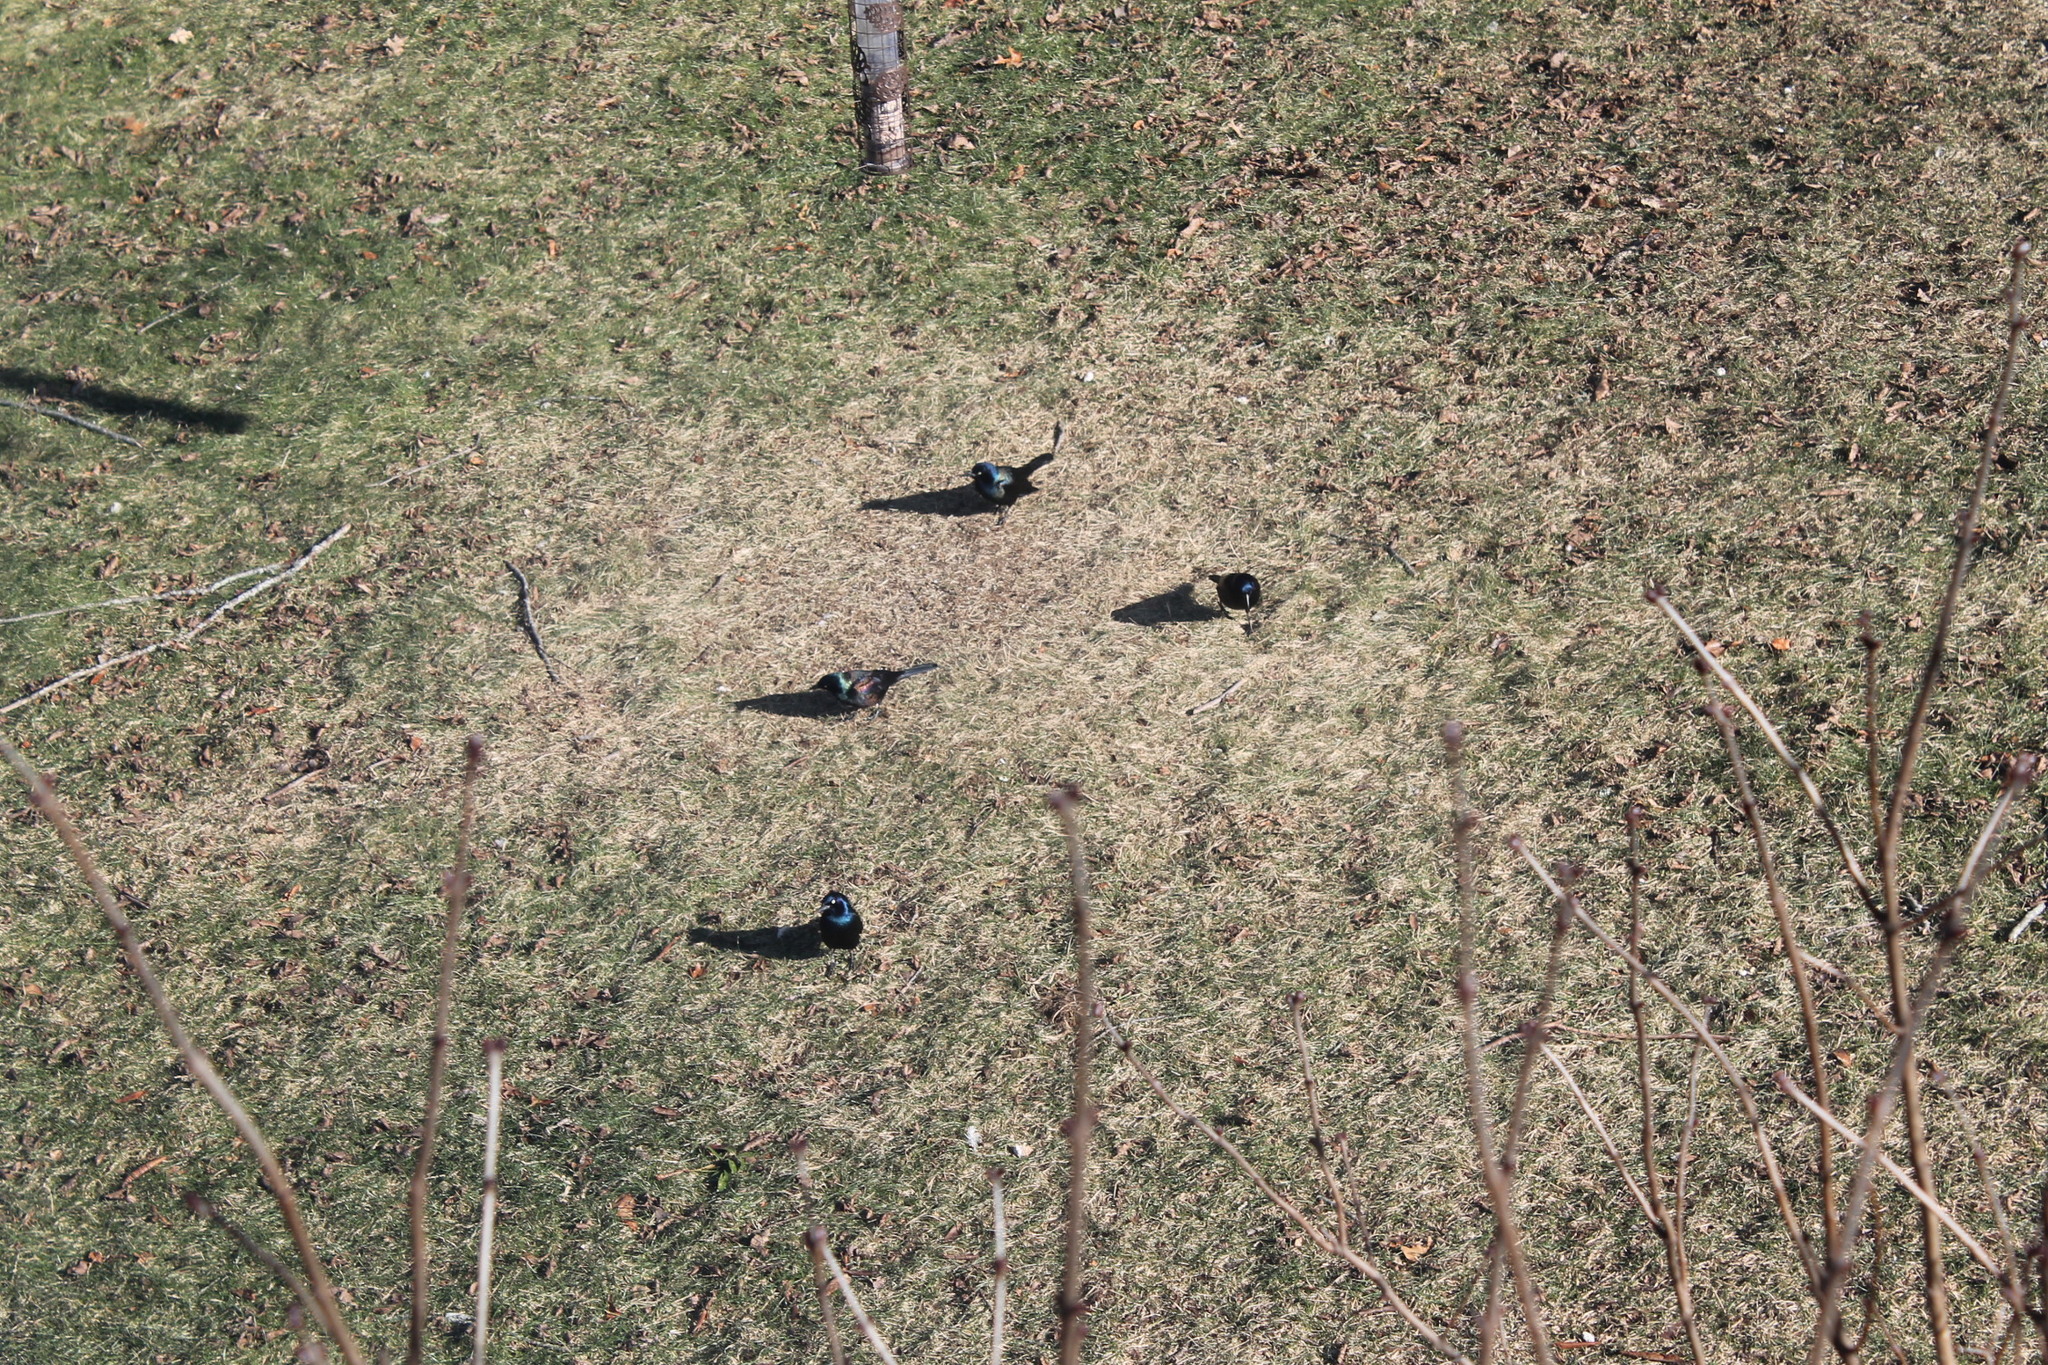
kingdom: Animalia
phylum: Chordata
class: Aves
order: Passeriformes
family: Icteridae
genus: Quiscalus
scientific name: Quiscalus quiscula
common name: Common grackle
